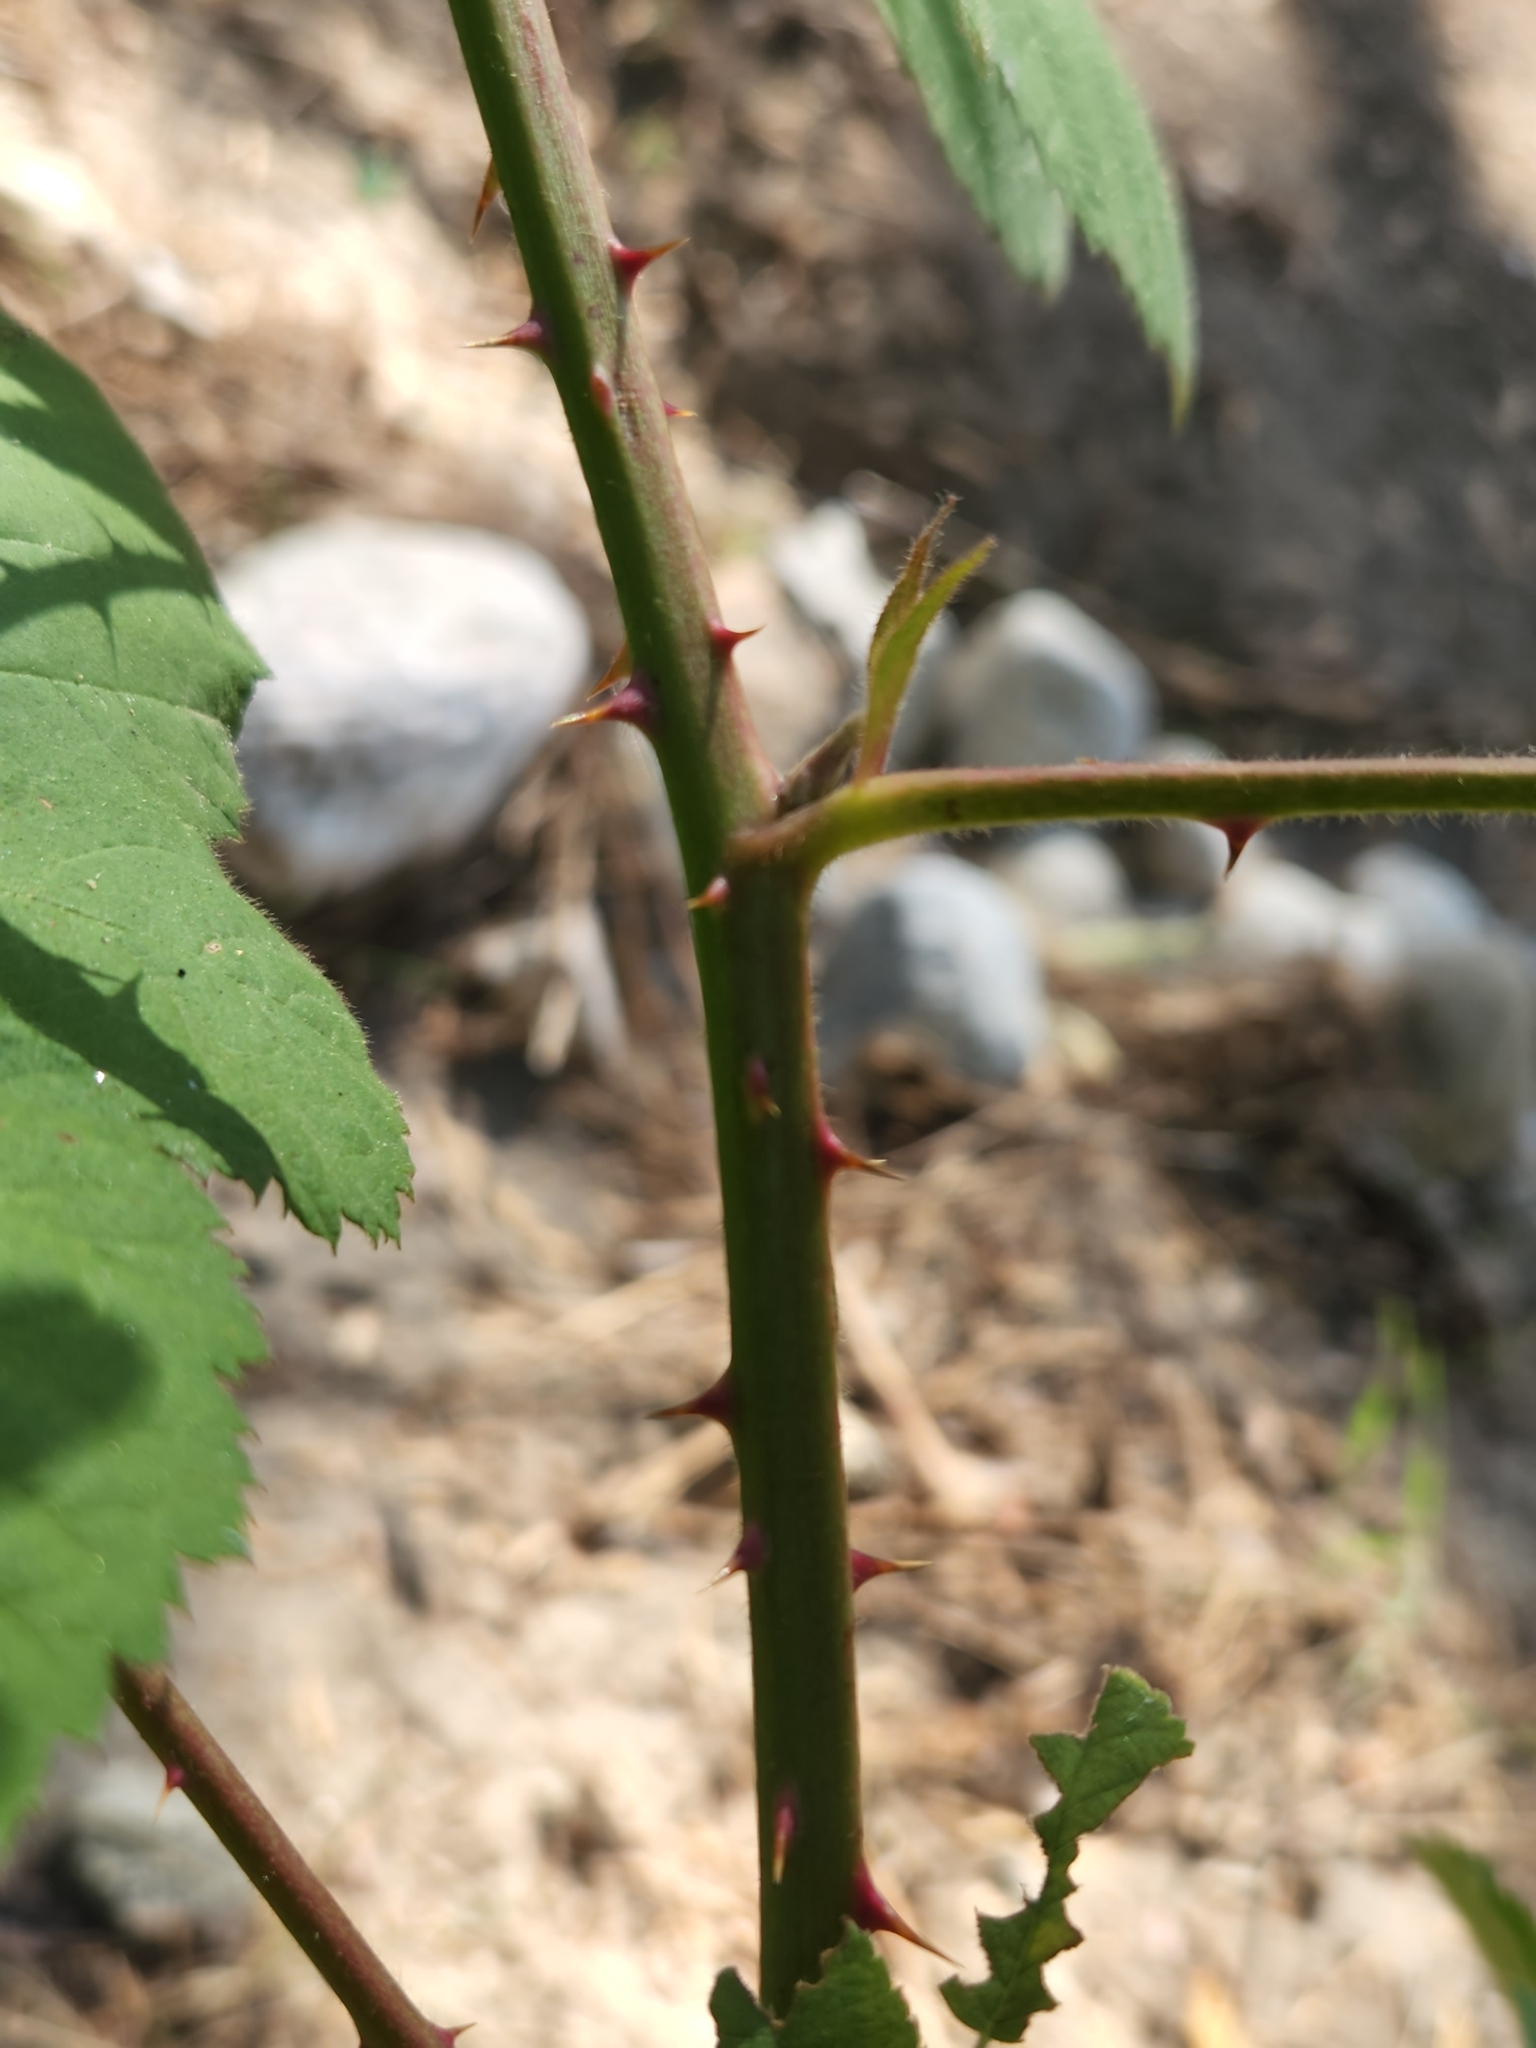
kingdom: Plantae
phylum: Tracheophyta
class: Magnoliopsida
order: Rosales
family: Rosaceae
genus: Rubus
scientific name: Rubus bifrons
